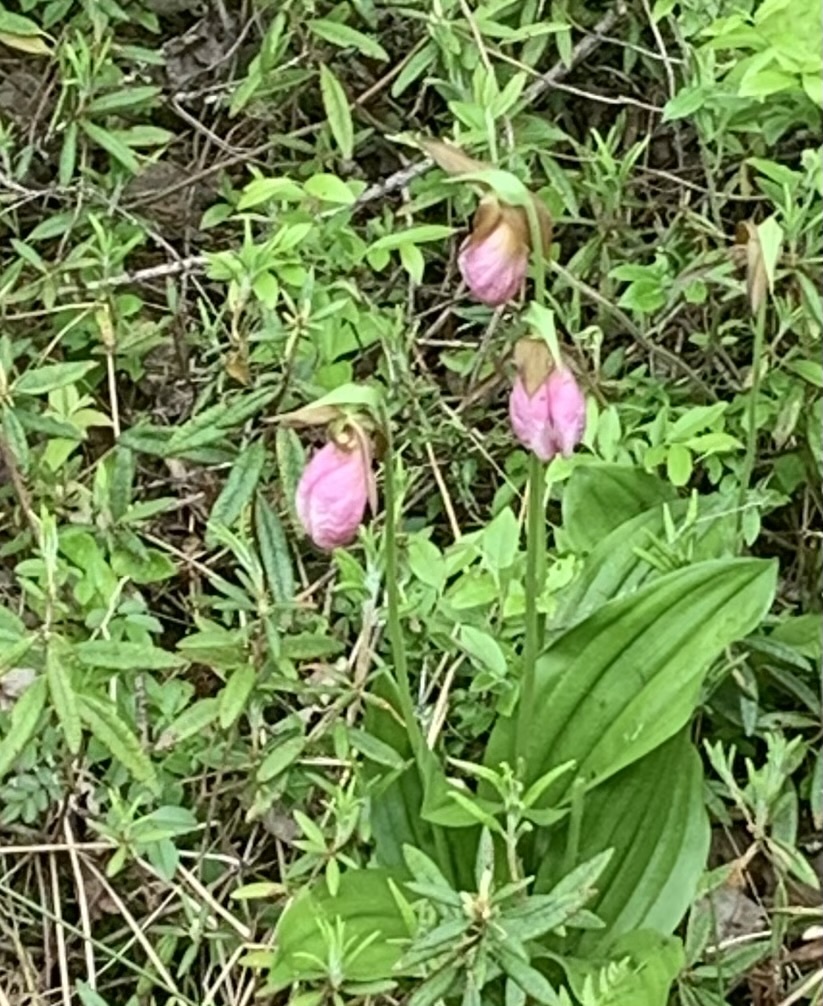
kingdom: Plantae
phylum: Tracheophyta
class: Liliopsida
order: Asparagales
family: Orchidaceae
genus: Cypripedium
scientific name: Cypripedium acaule
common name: Pink lady's-slipper
